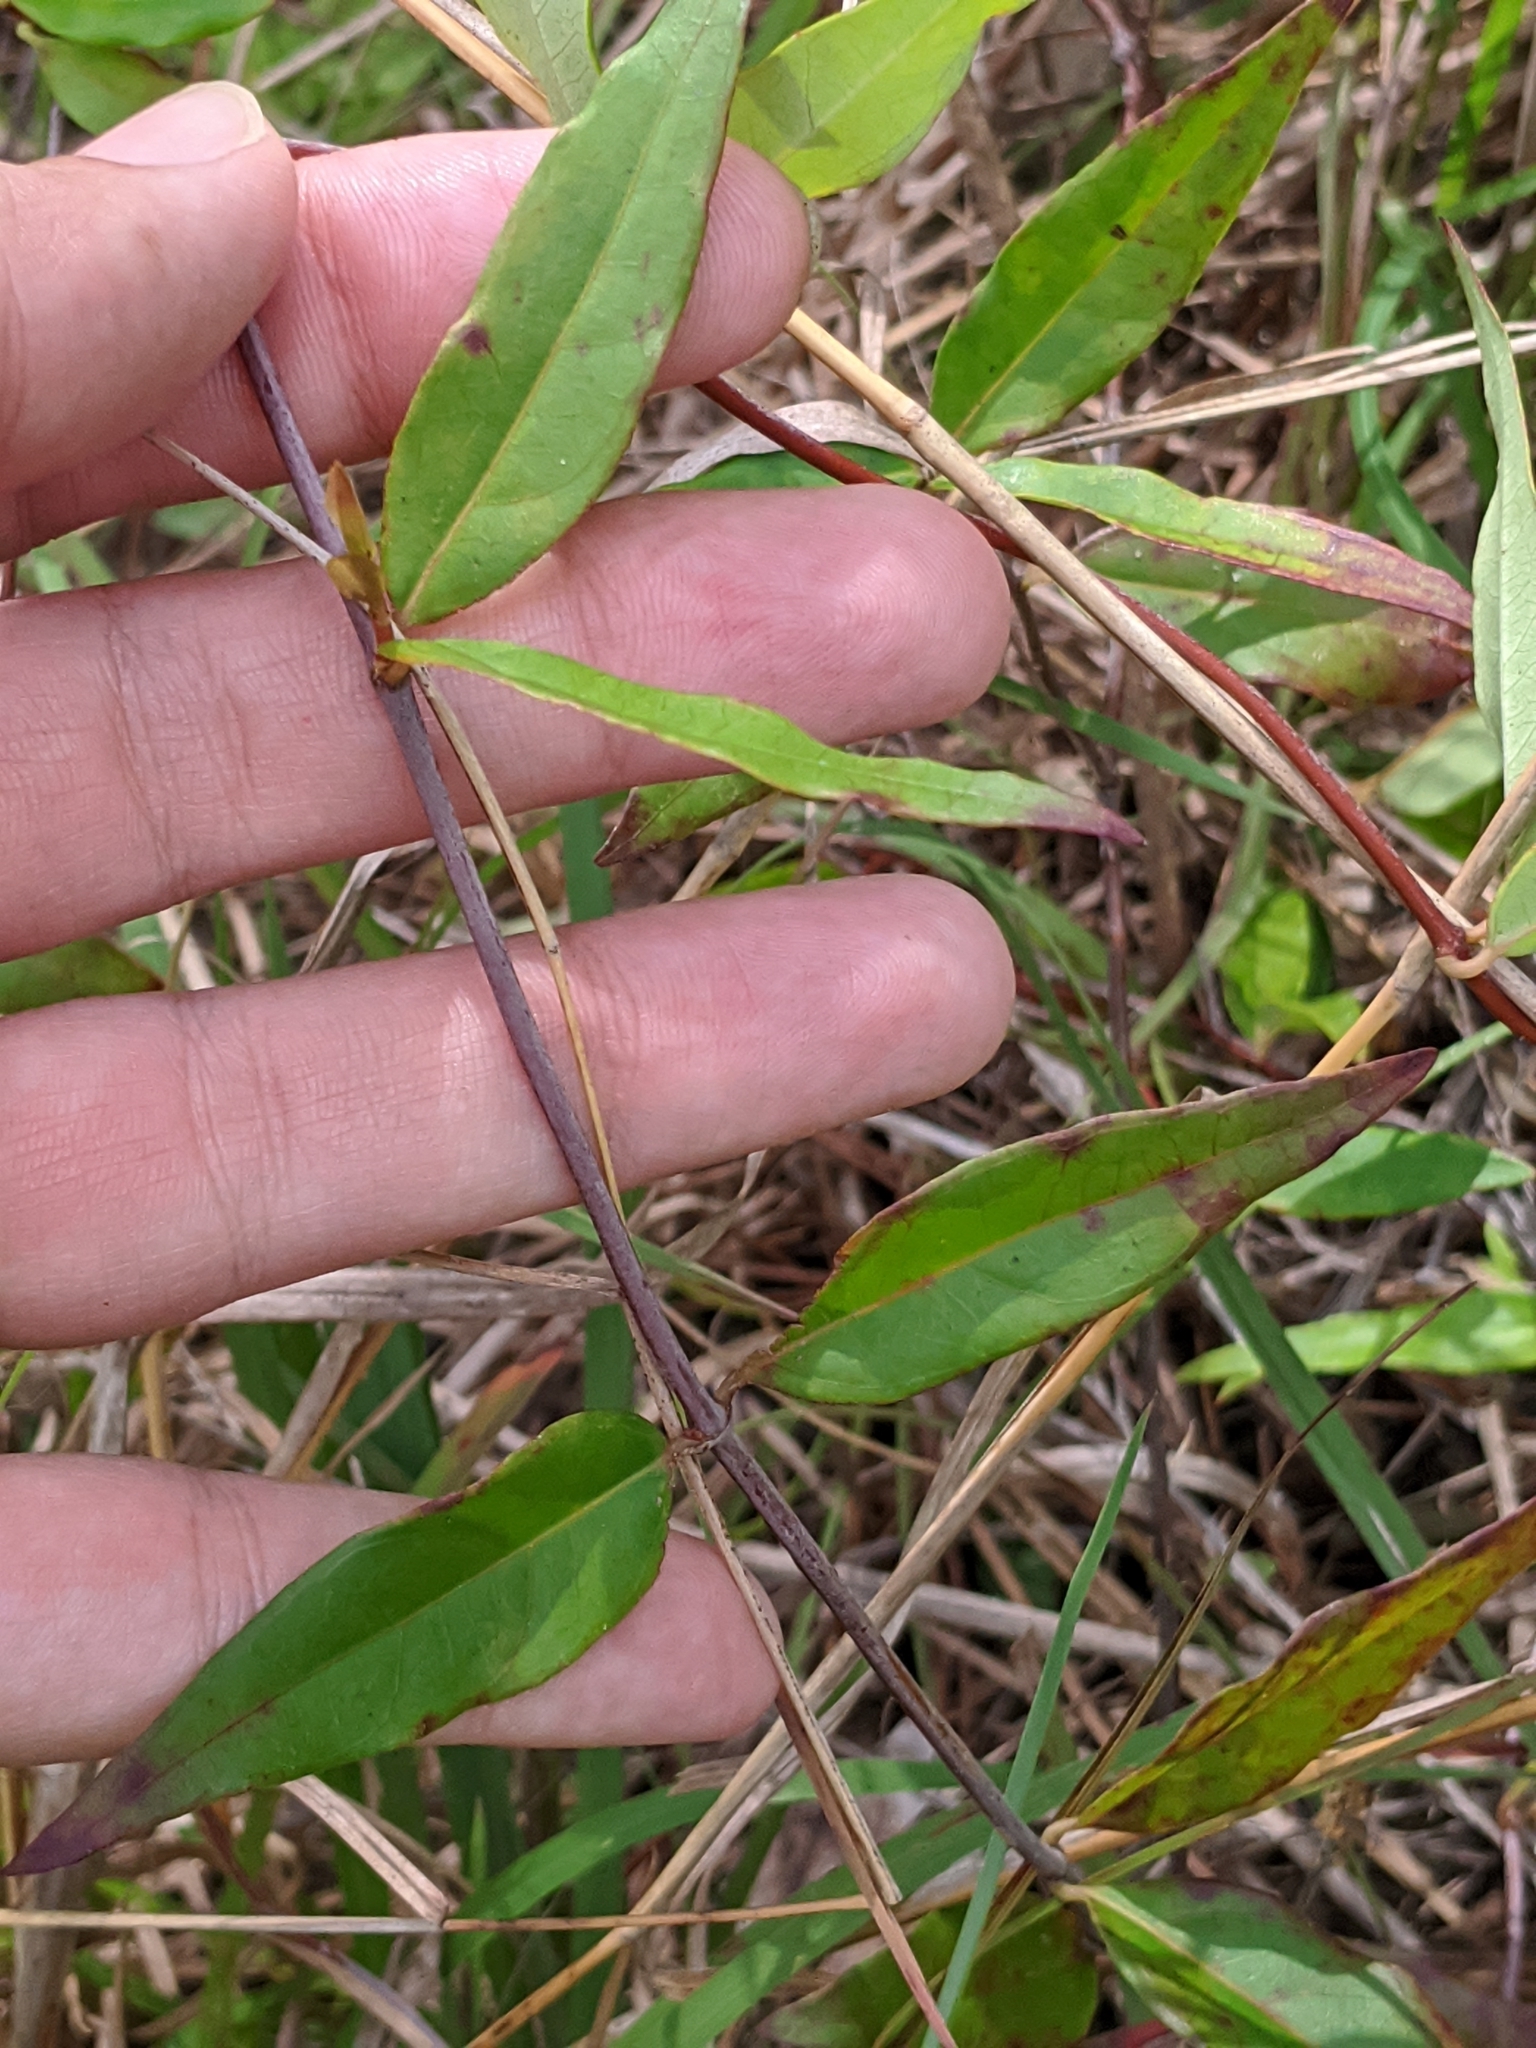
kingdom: Plantae
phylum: Tracheophyta
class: Magnoliopsida
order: Gentianales
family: Gelsemiaceae
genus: Gelsemium
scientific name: Gelsemium sempervirens
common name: Carolina-jasmine
